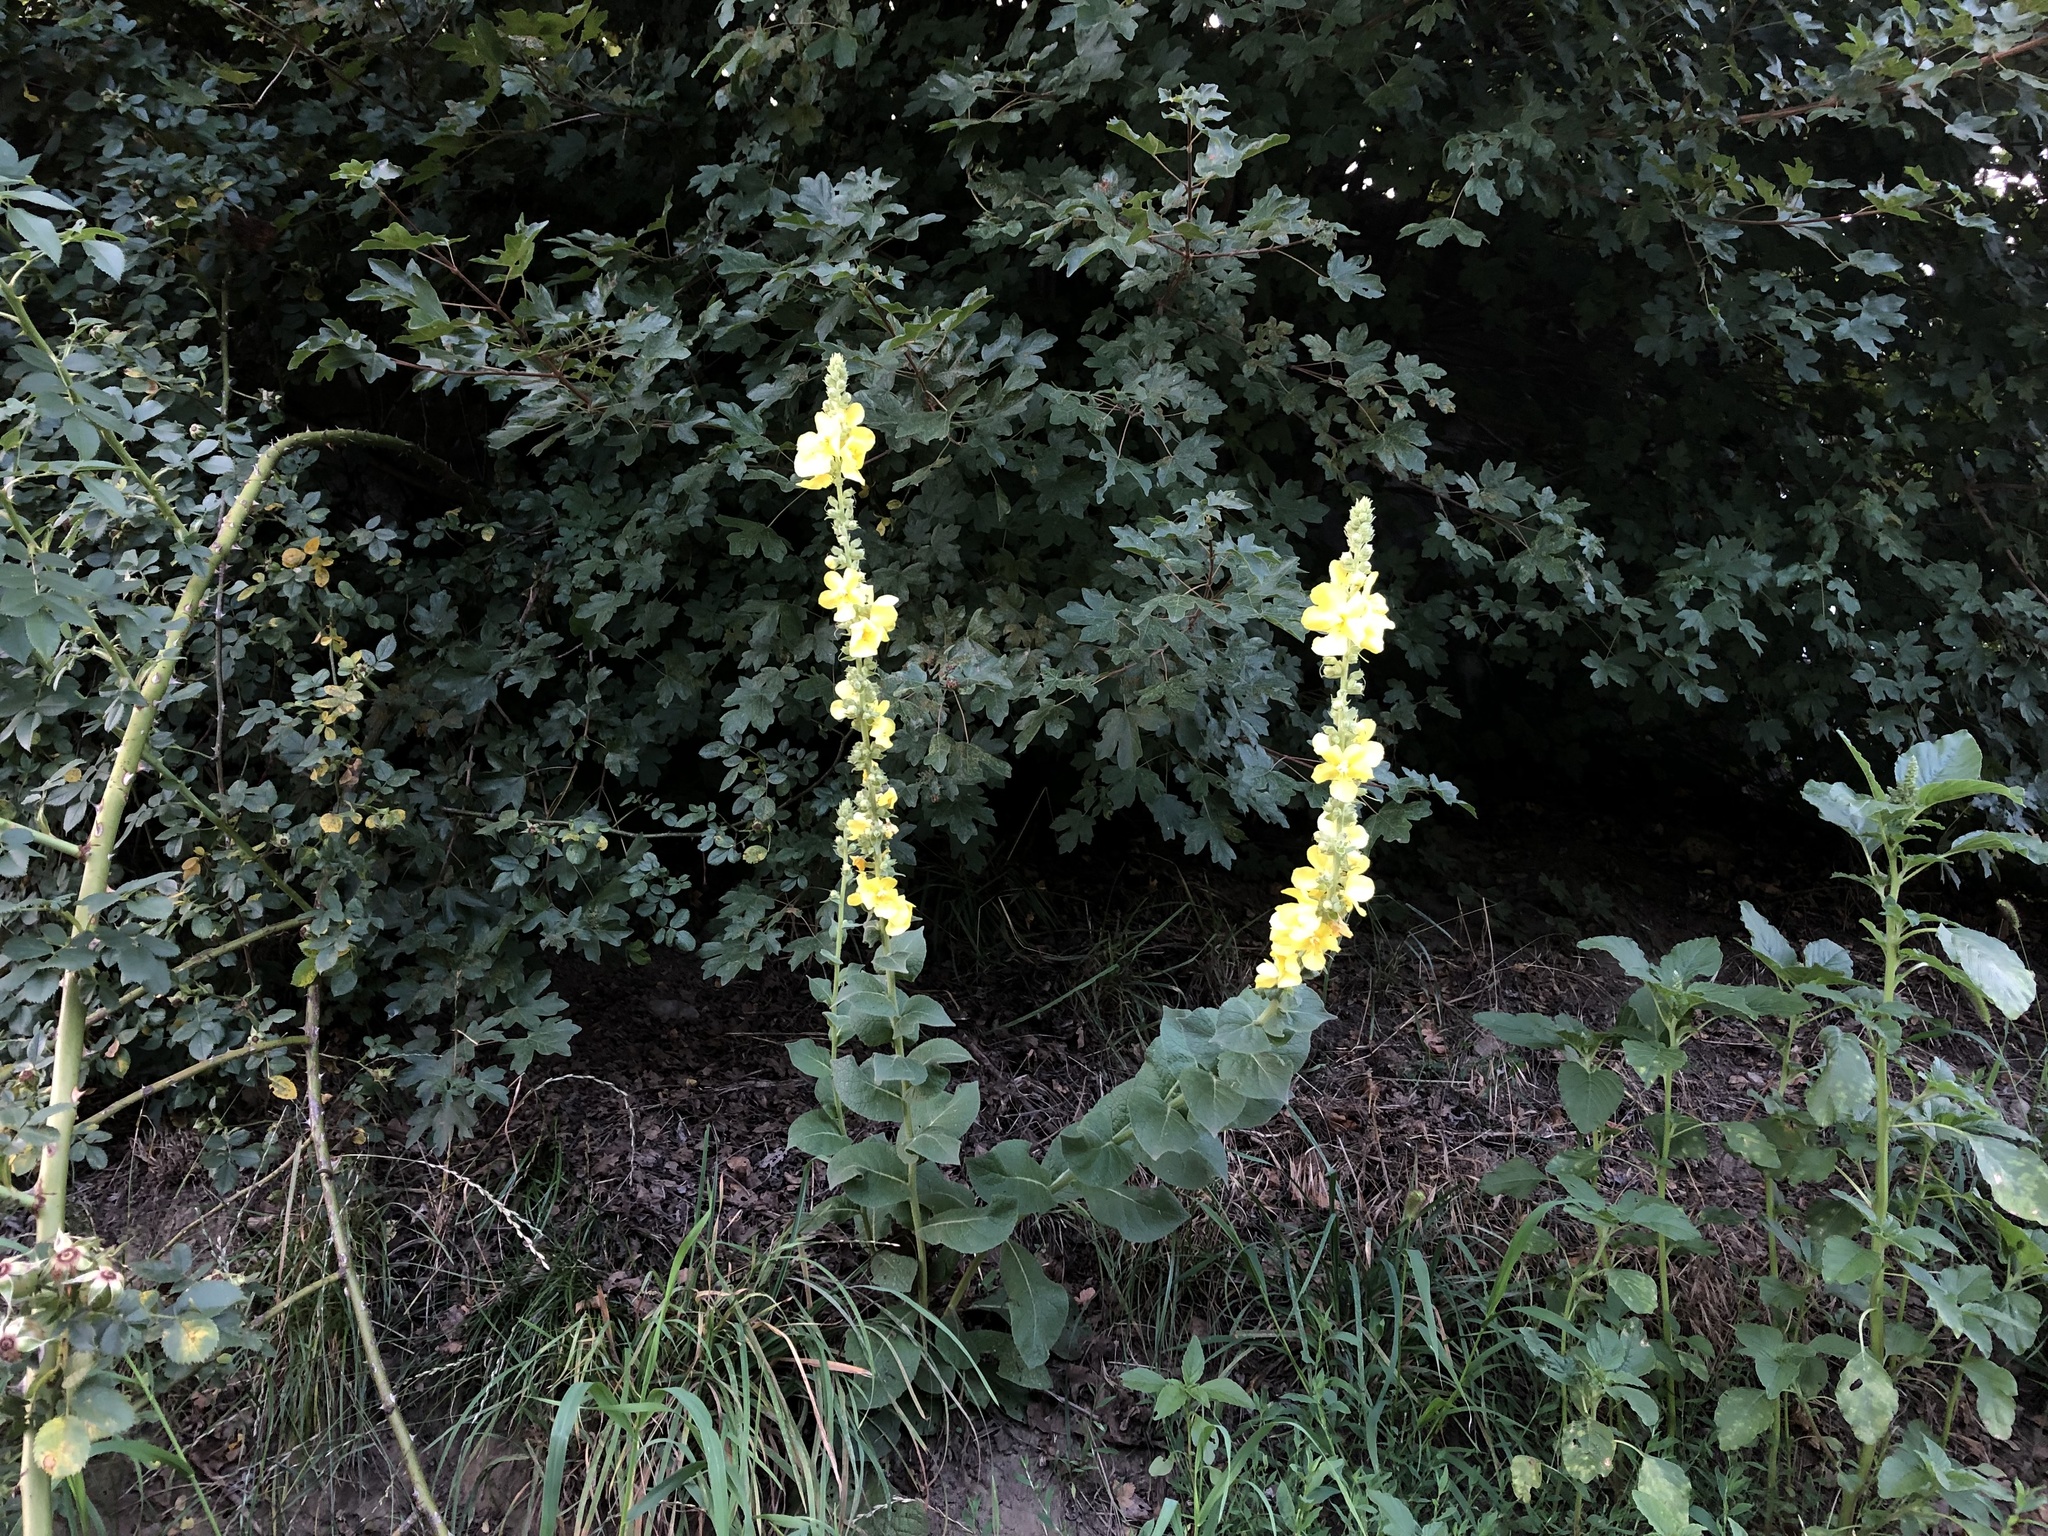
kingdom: Plantae
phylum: Tracheophyta
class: Magnoliopsida
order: Lamiales
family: Scrophulariaceae
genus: Verbascum
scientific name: Verbascum phlomoides
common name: Orange mullein
